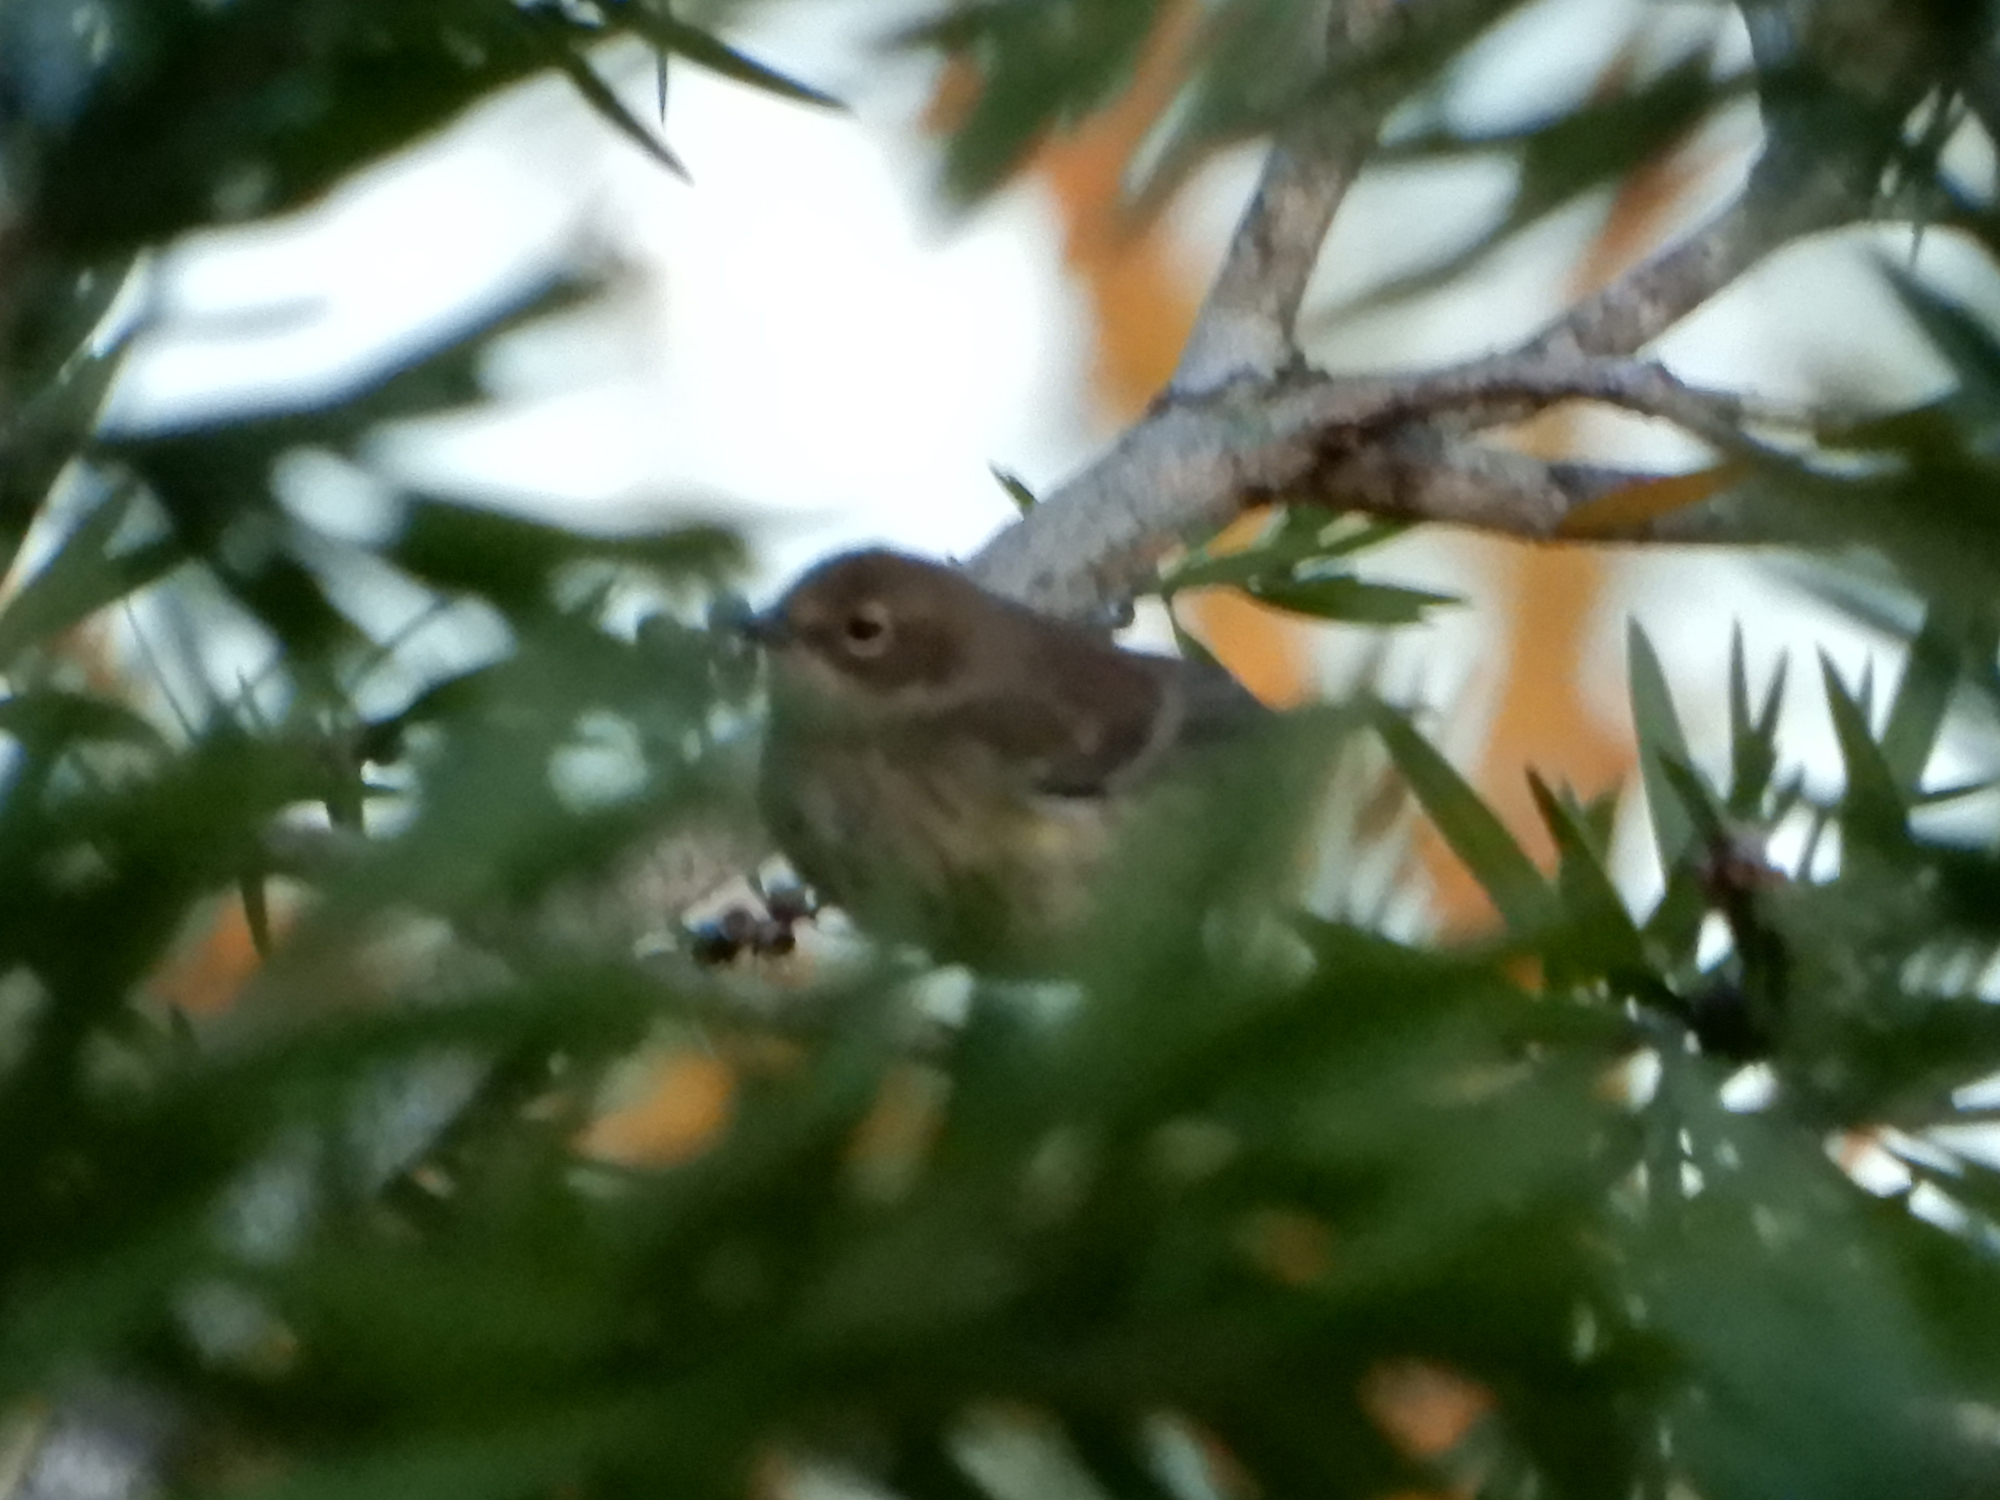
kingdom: Animalia
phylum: Chordata
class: Aves
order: Passeriformes
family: Parulidae
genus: Setophaga
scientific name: Setophaga coronata
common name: Myrtle warbler
